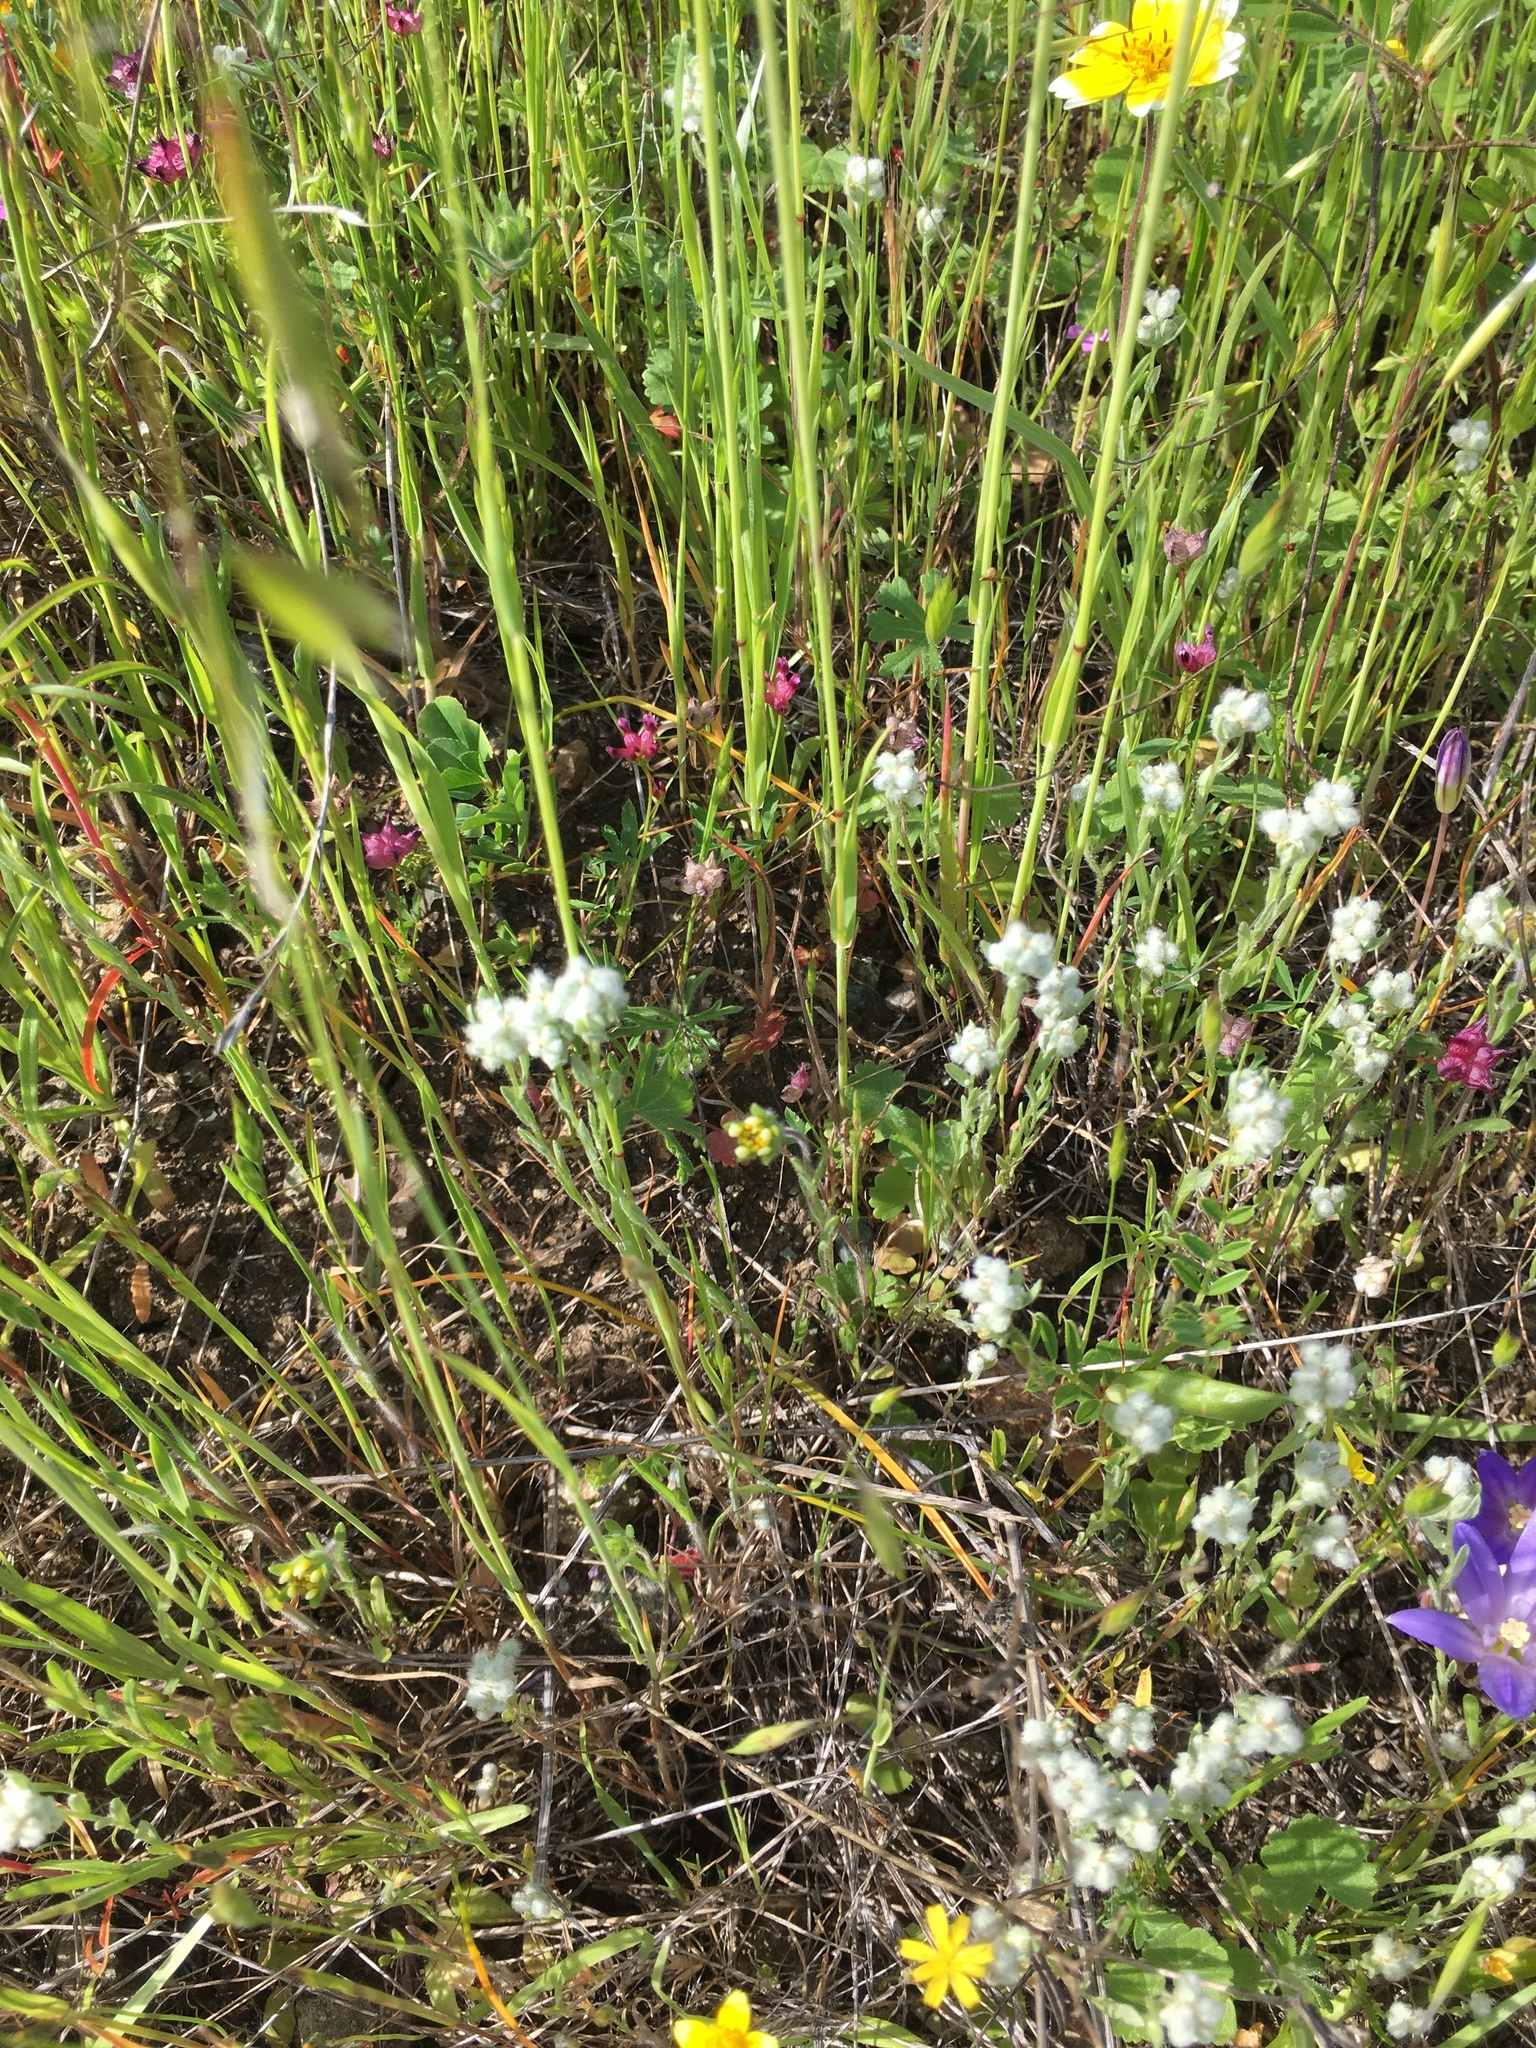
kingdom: Plantae
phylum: Tracheophyta
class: Magnoliopsida
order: Asterales
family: Asteraceae
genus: Bombycilaena
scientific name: Bombycilaena californica
